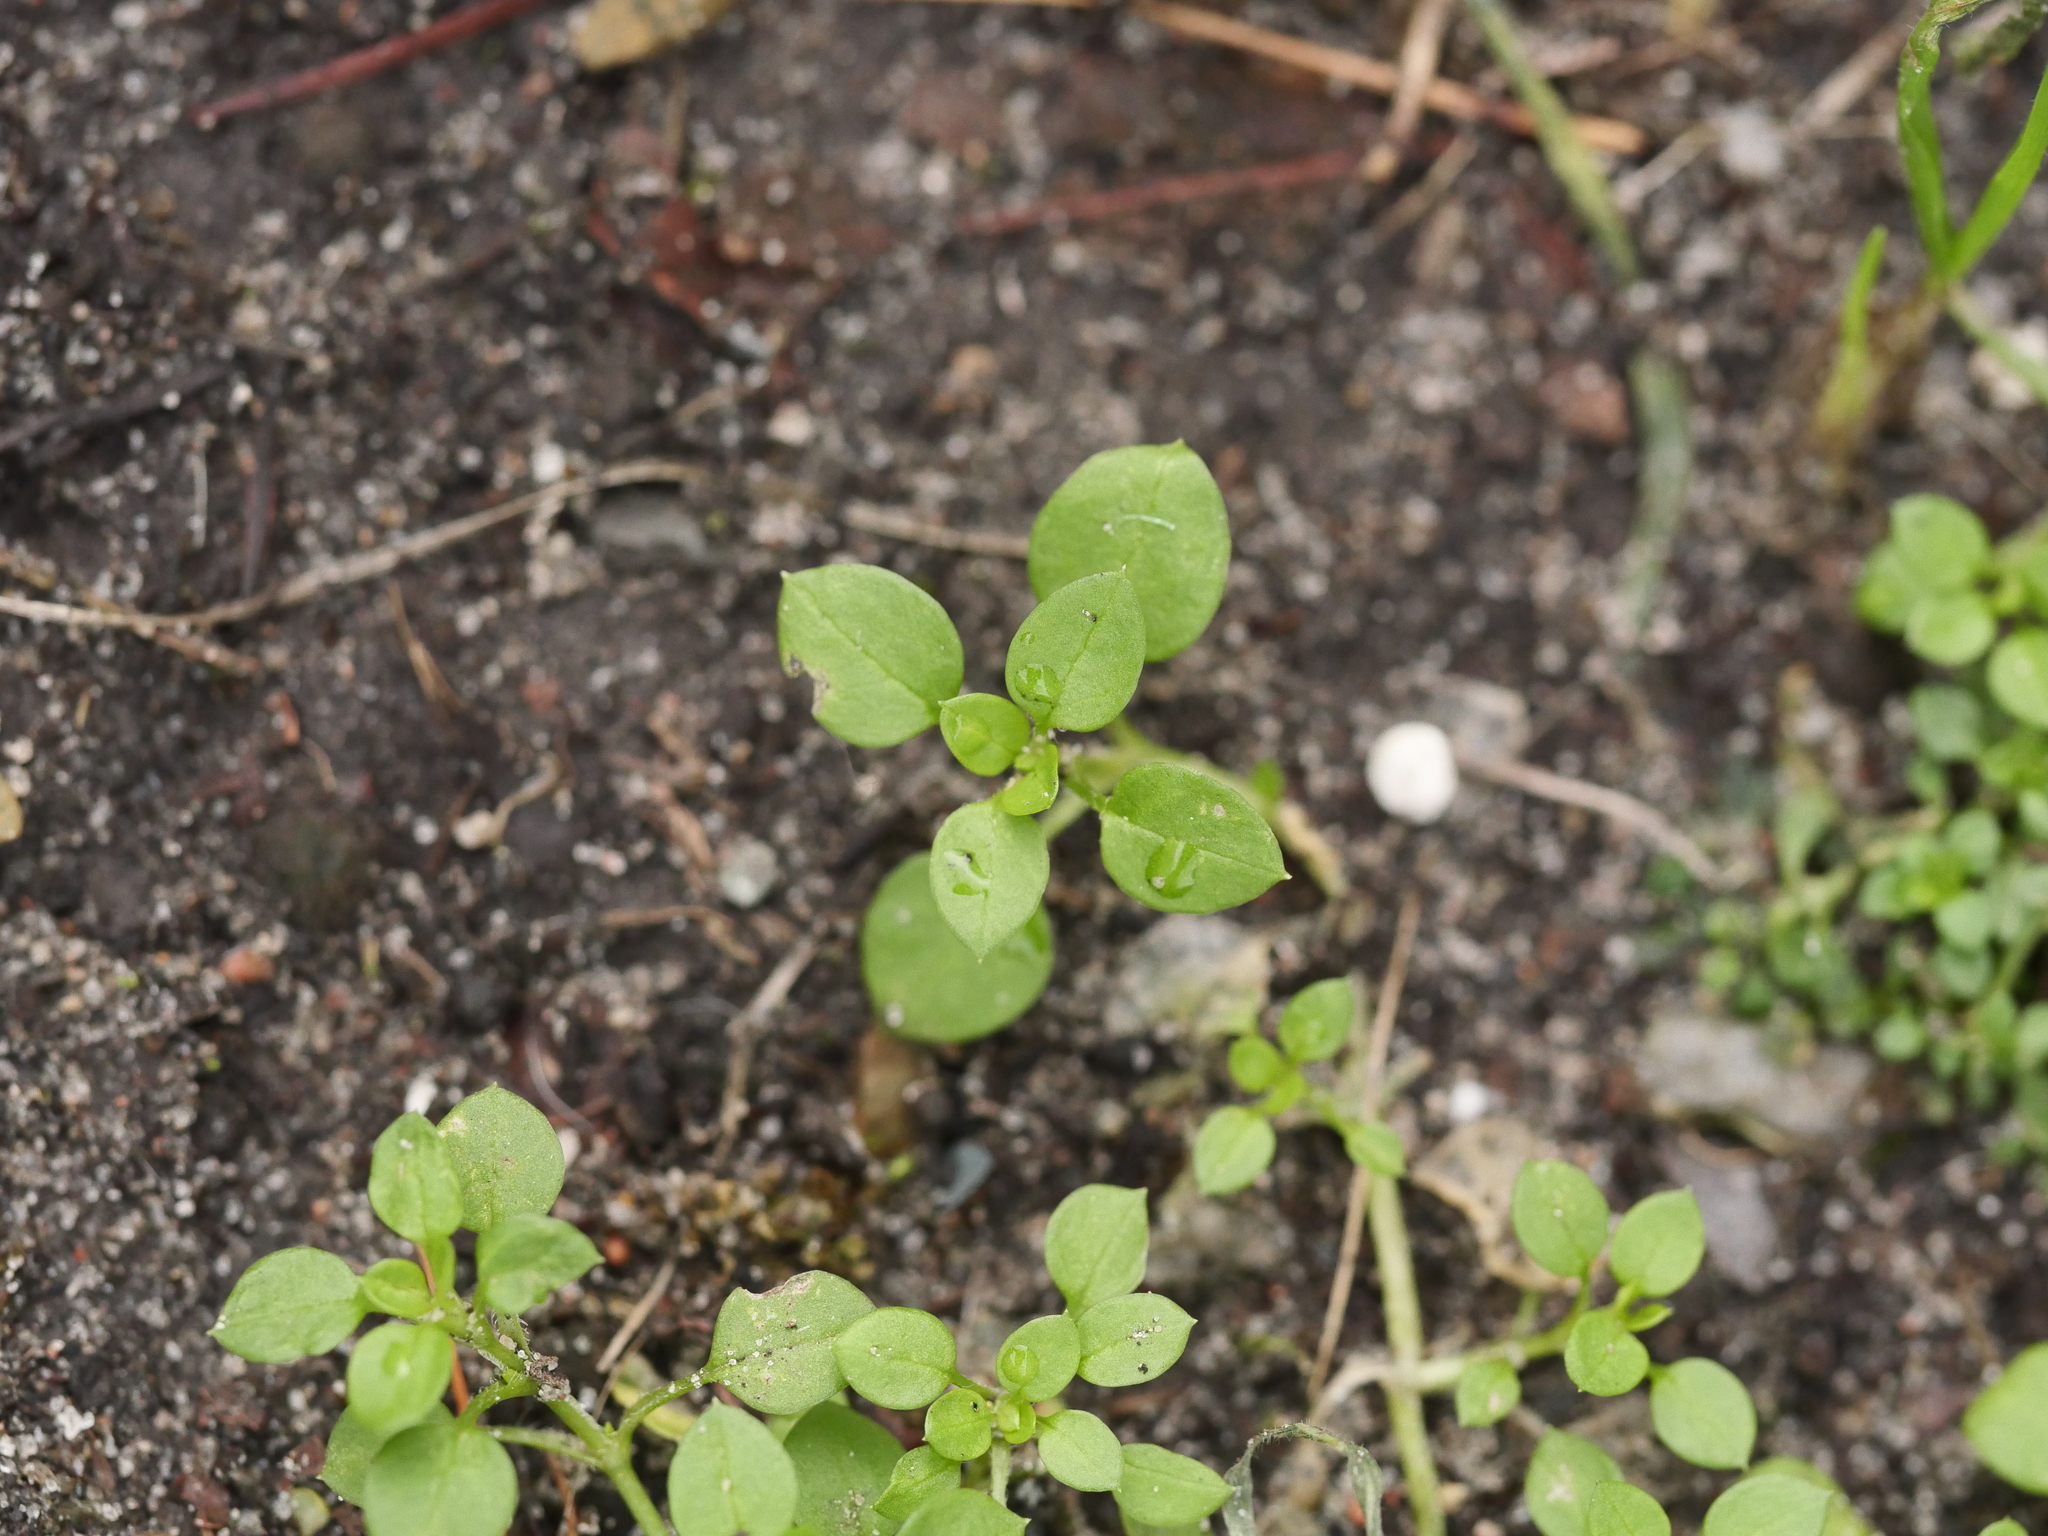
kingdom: Plantae
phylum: Tracheophyta
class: Magnoliopsida
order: Caryophyllales
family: Caryophyllaceae
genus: Stellaria
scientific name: Stellaria media
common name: Common chickweed
